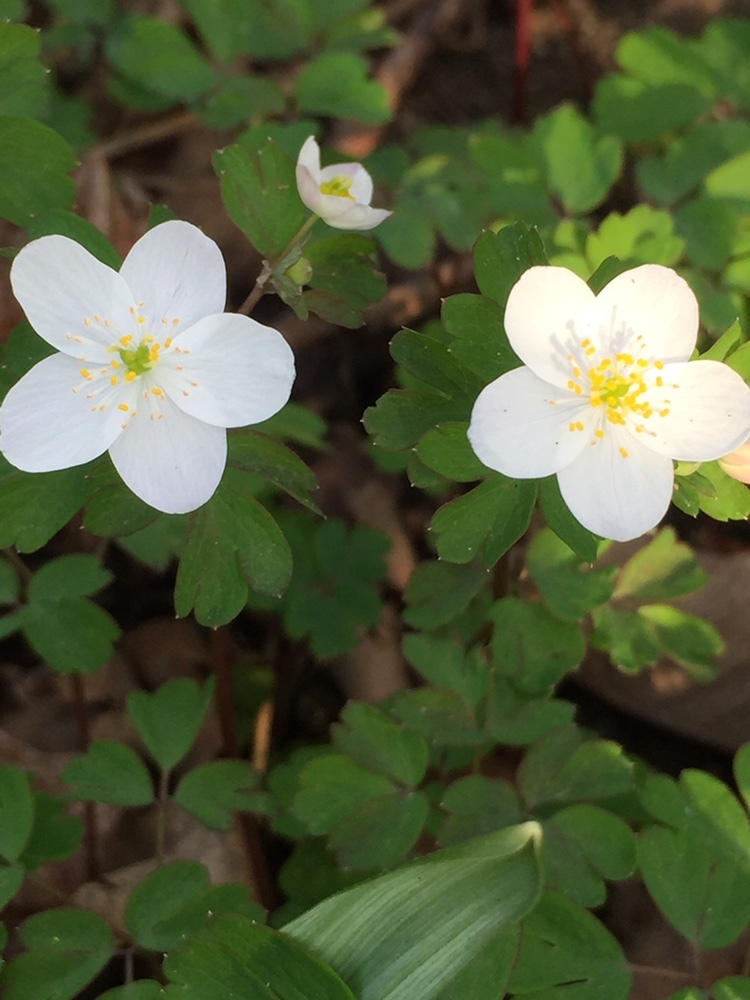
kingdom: Plantae
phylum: Tracheophyta
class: Magnoliopsida
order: Ranunculales
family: Ranunculaceae
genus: Enemion
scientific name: Enemion biternatum
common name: Eastern false rue-anemone
